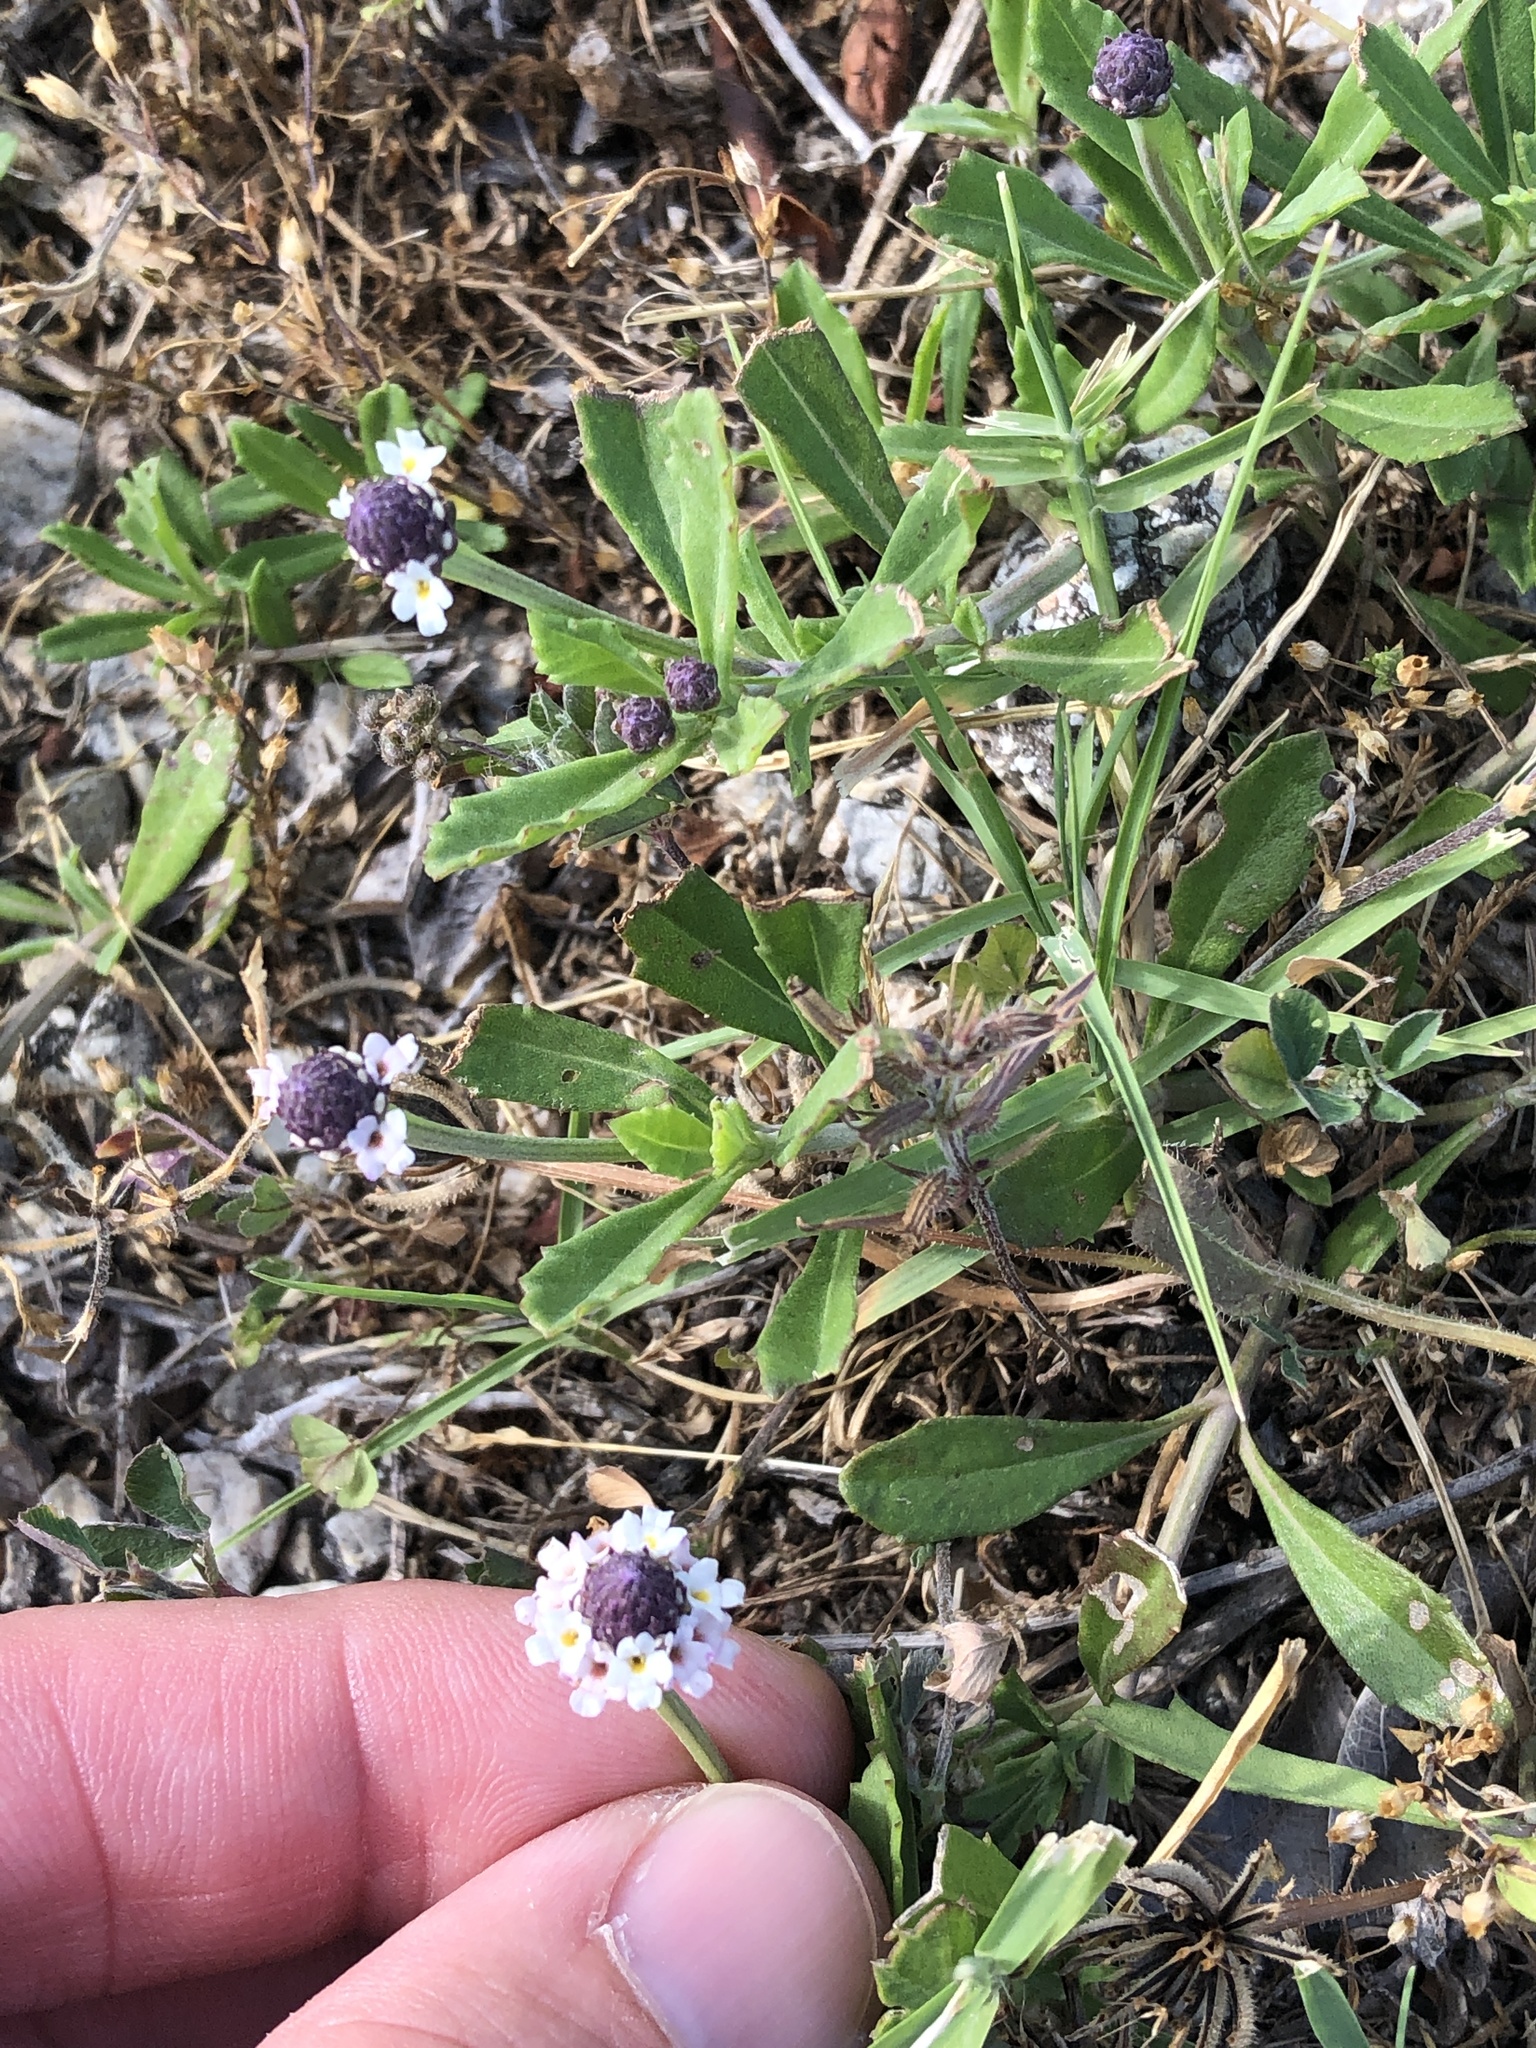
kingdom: Plantae
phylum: Tracheophyta
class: Magnoliopsida
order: Lamiales
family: Verbenaceae
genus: Phyla
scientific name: Phyla nodiflora
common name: Frogfruit
